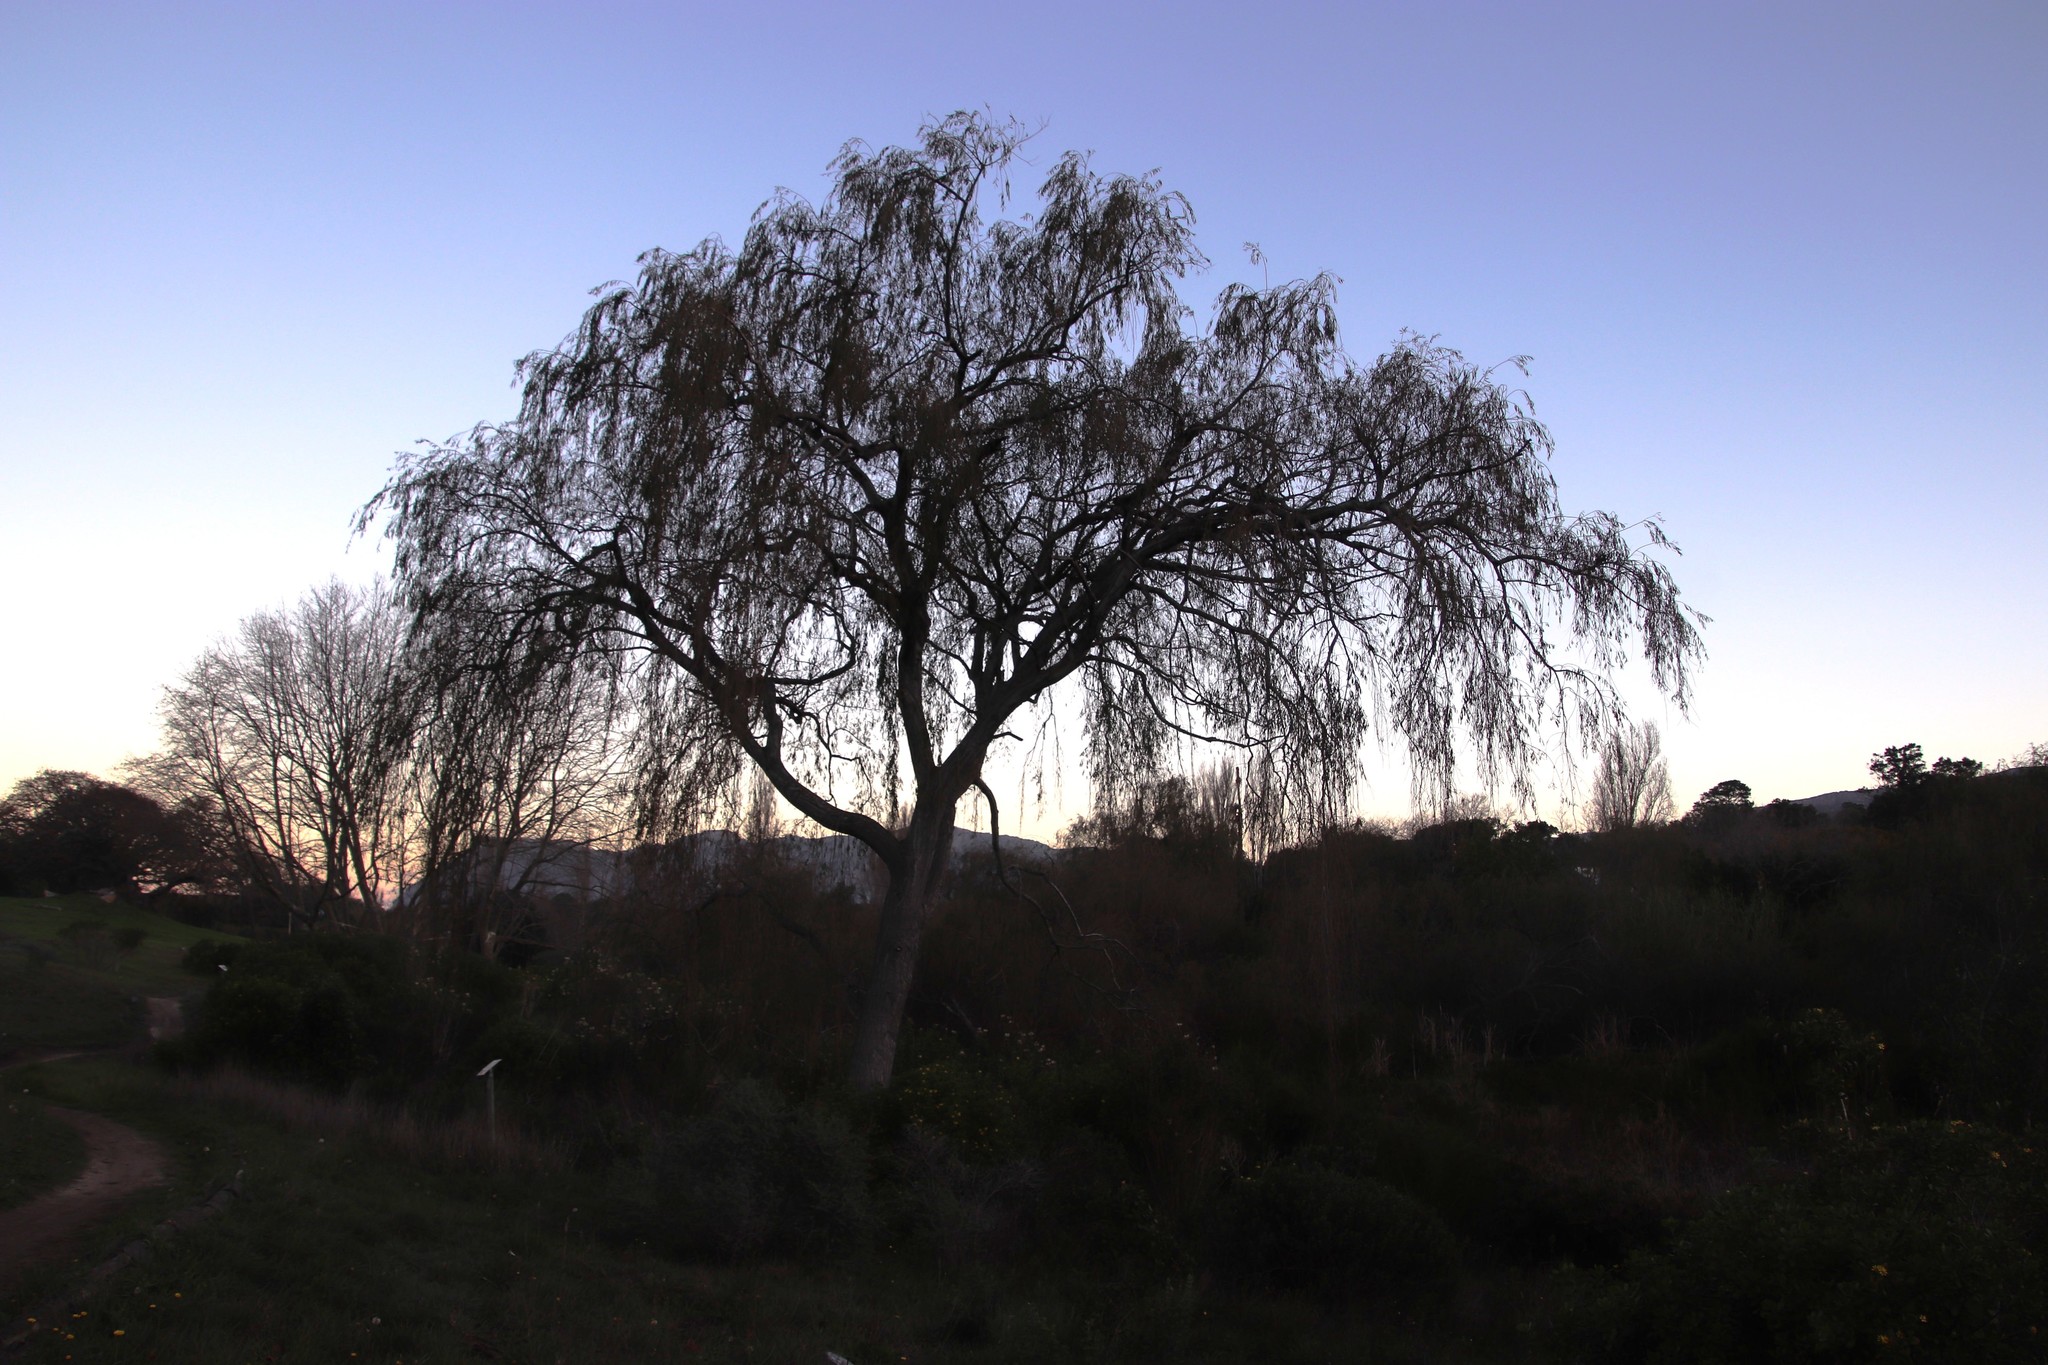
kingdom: Plantae
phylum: Tracheophyta
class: Magnoliopsida
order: Malpighiales
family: Salicaceae
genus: Salix
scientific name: Salix babylonica
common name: Weeping willow
